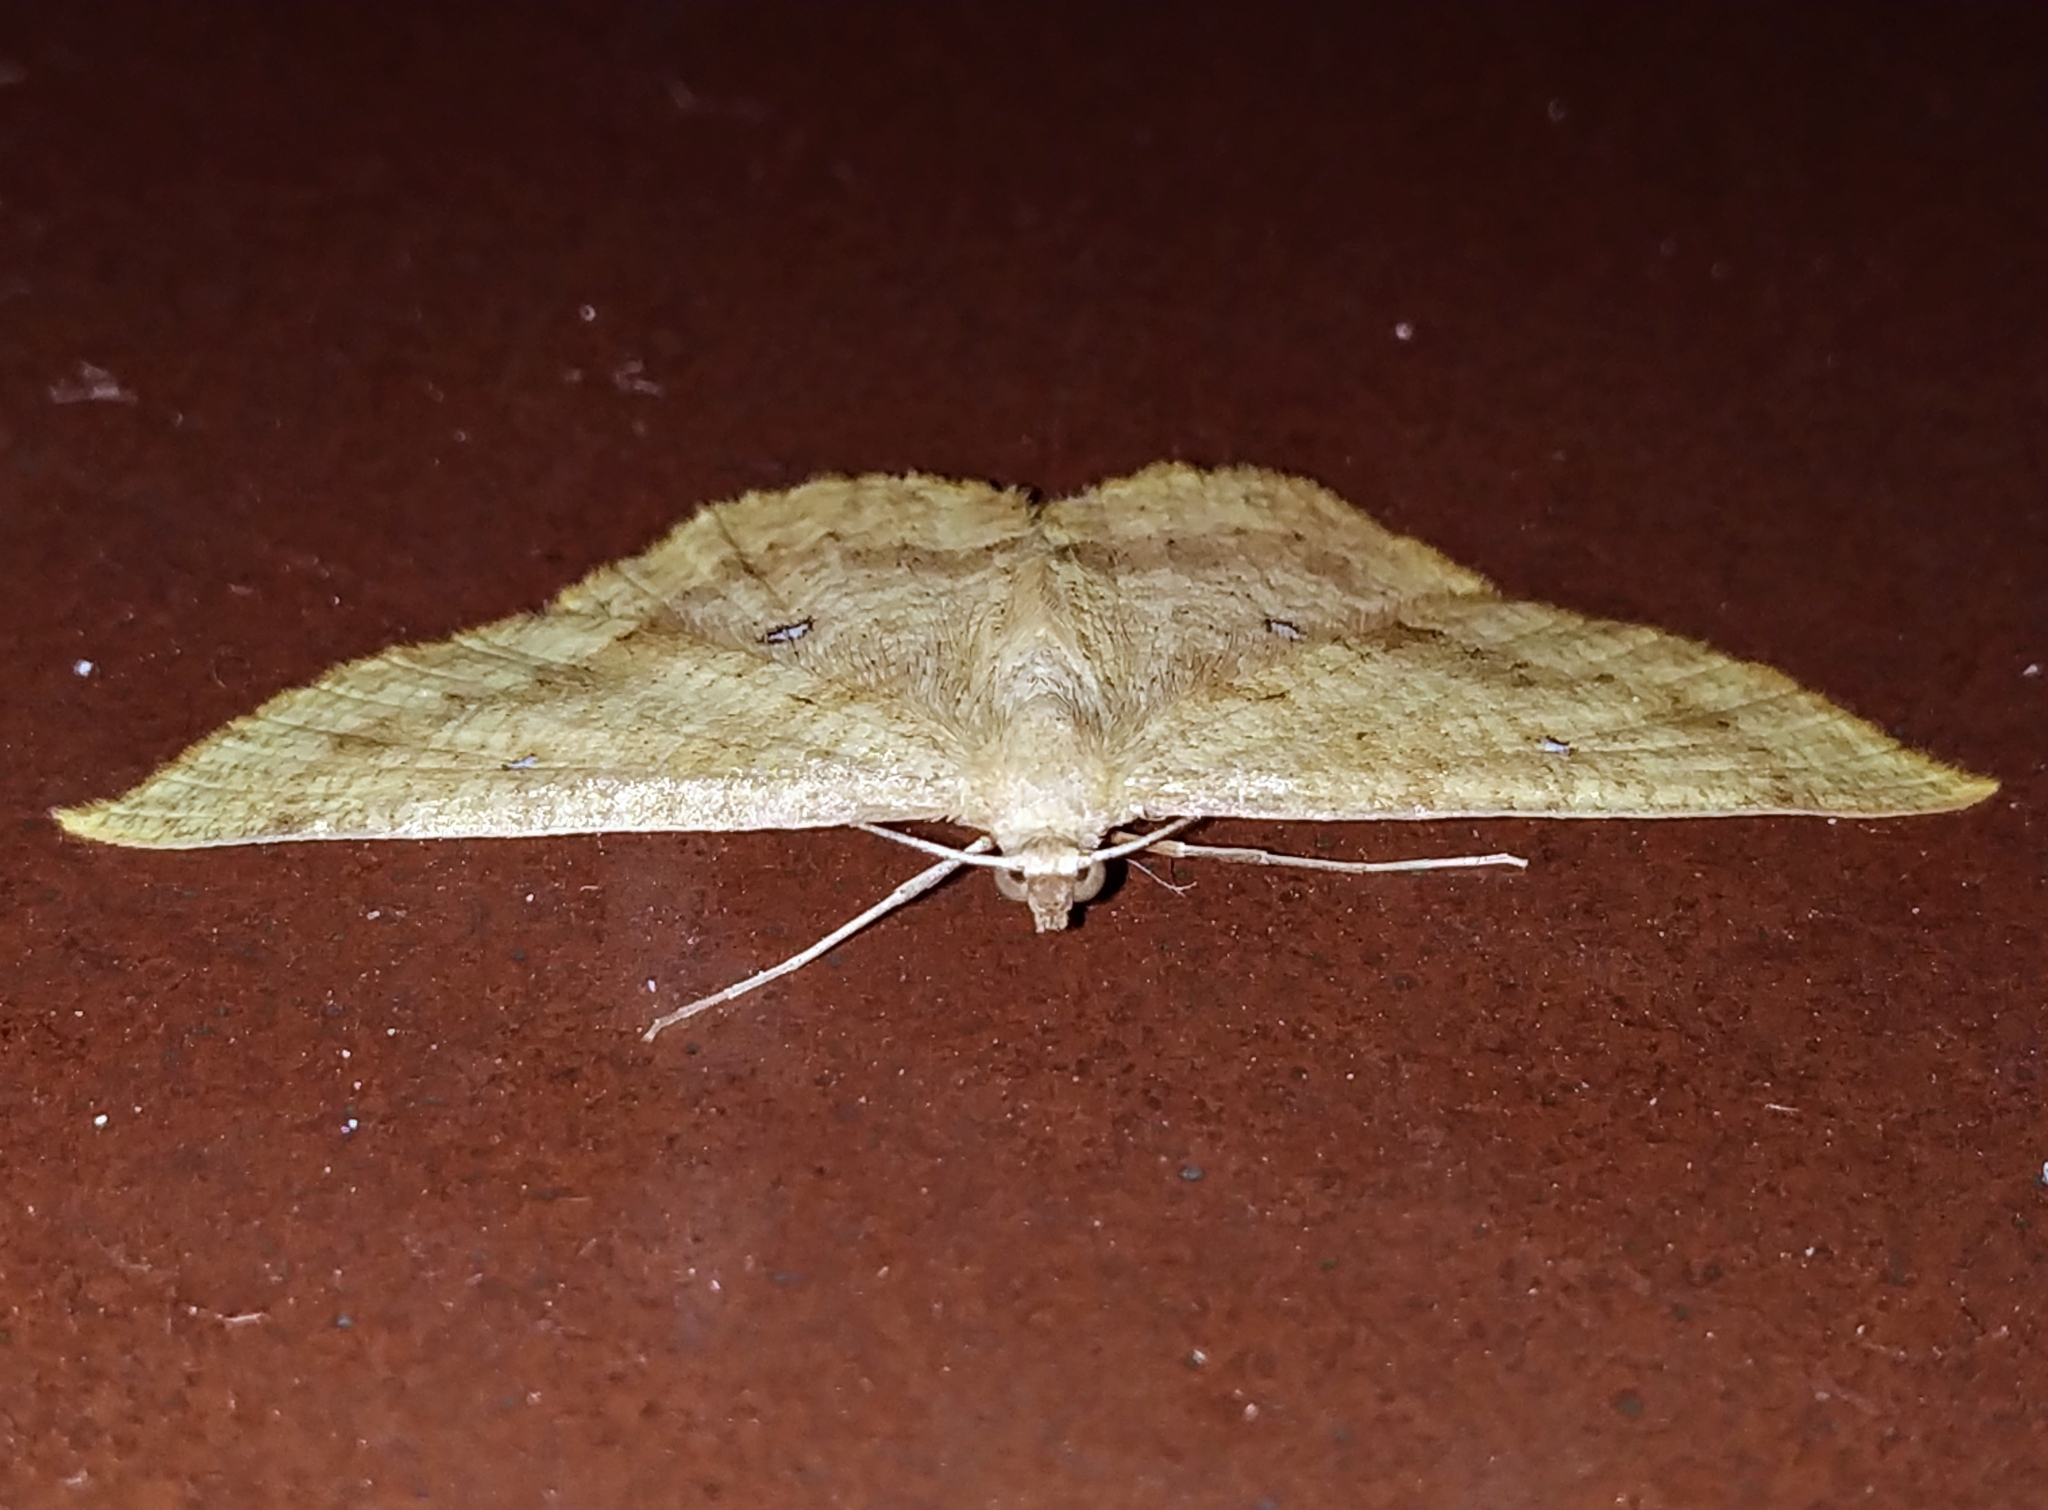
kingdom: Animalia
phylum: Arthropoda
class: Insecta
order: Lepidoptera
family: Geometridae
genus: Palaeaspilates
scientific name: Palaeaspilates Anisephyra ocularia
